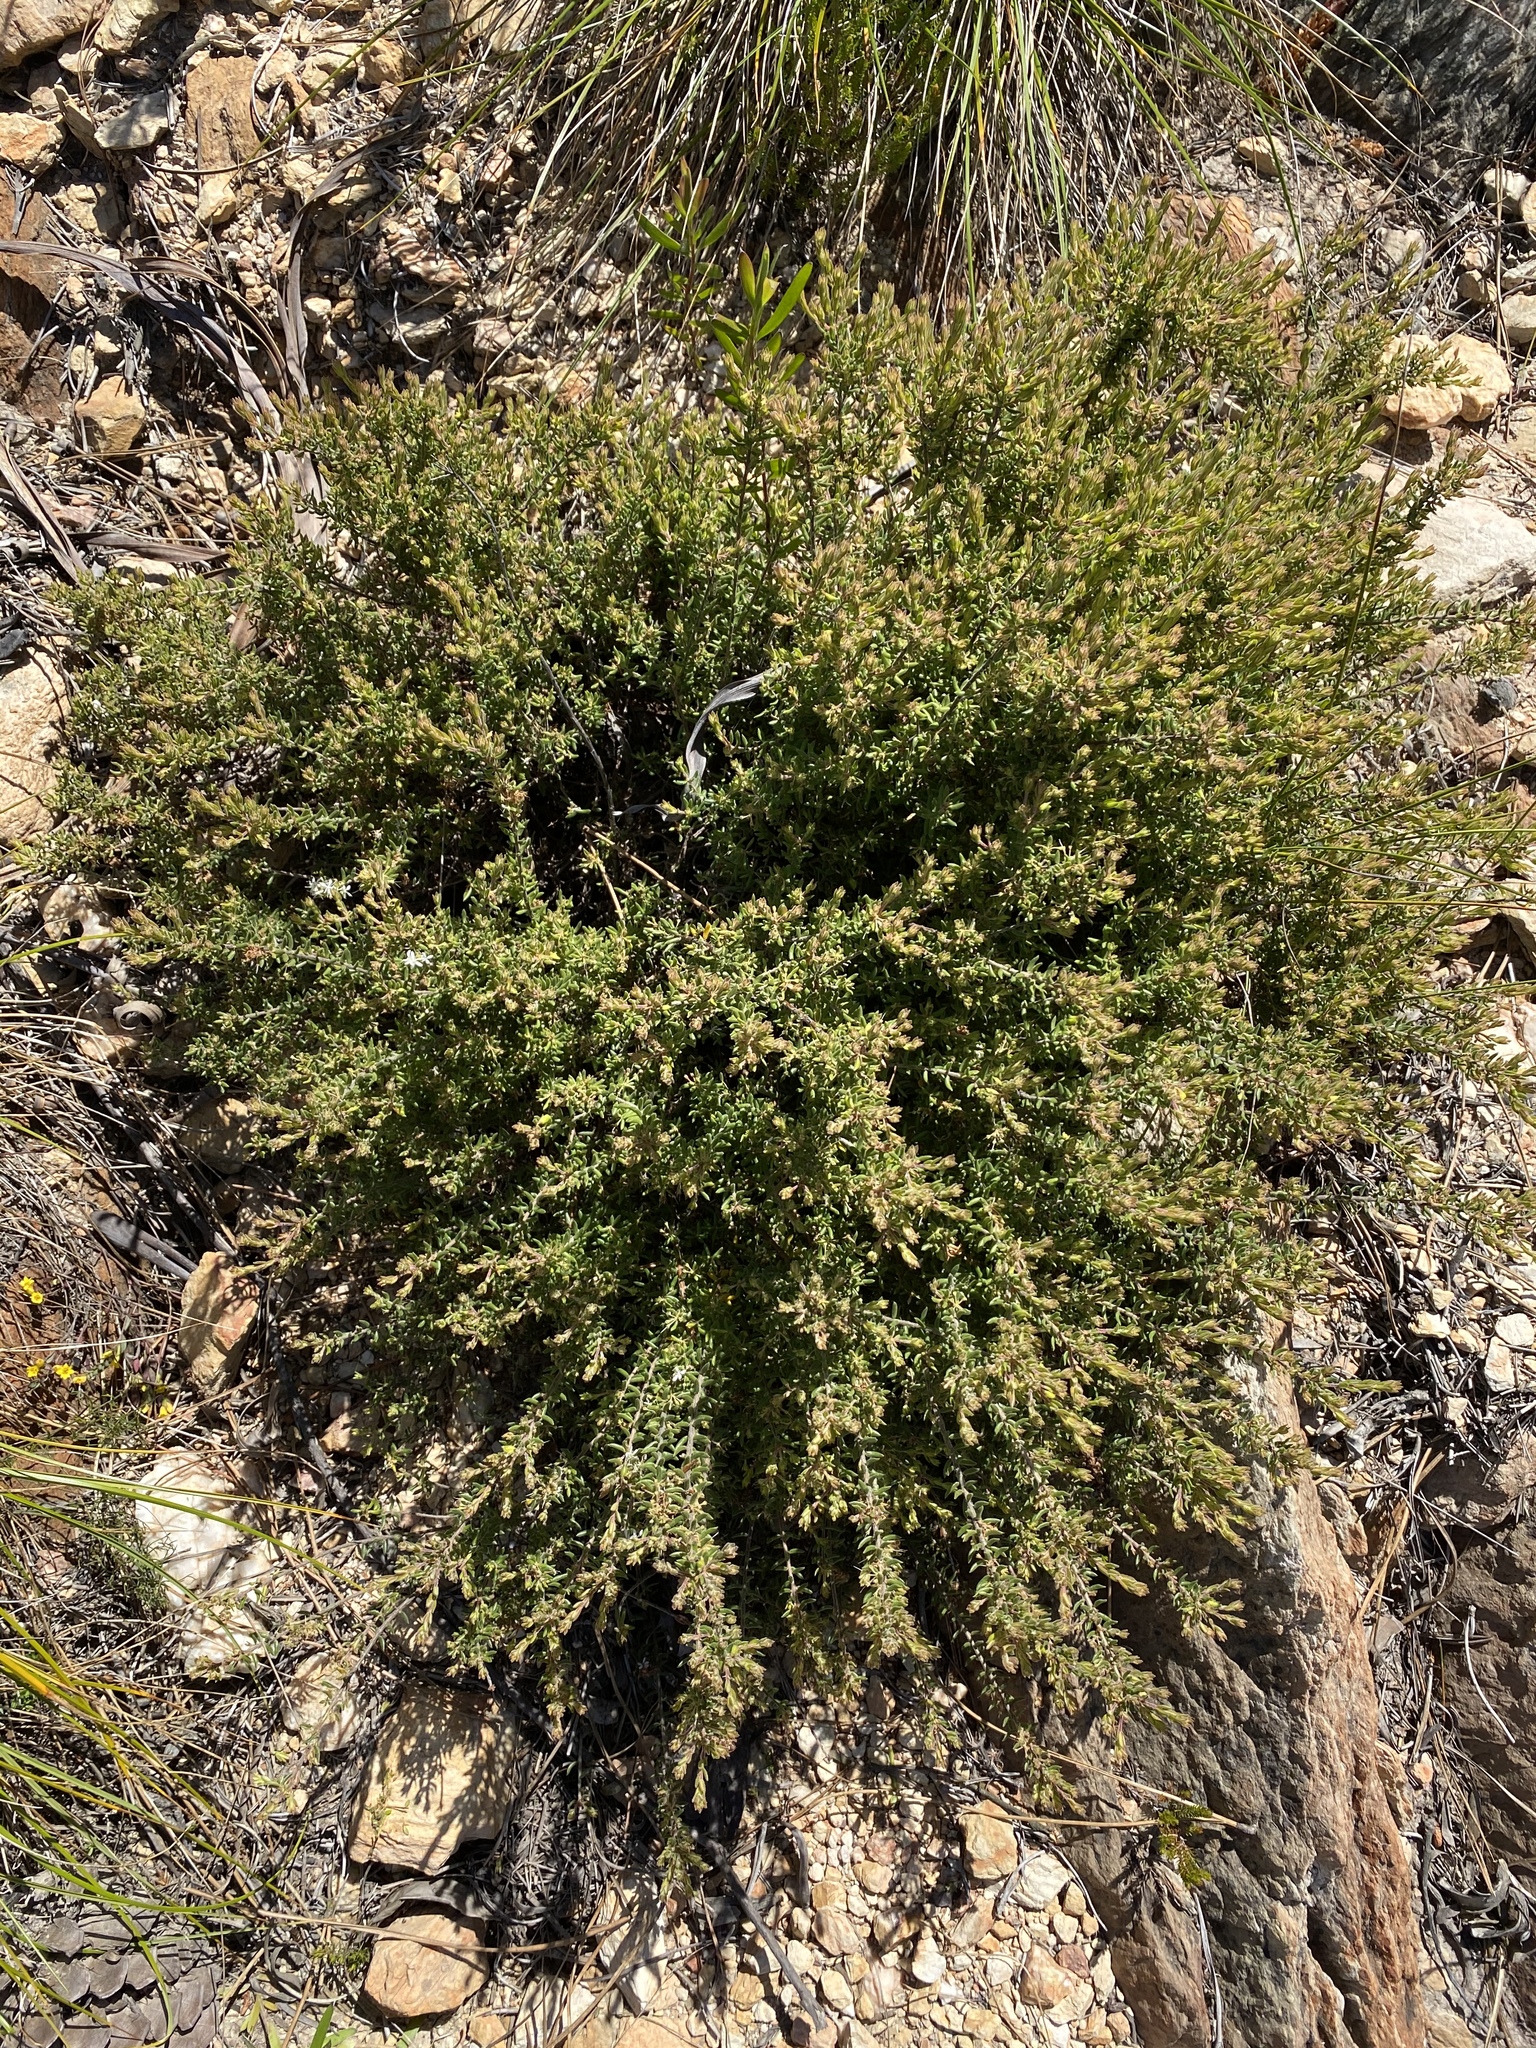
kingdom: Plantae
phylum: Tracheophyta
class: Magnoliopsida
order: Sapindales
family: Rutaceae
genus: Agathosma
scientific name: Agathosma mundtii
